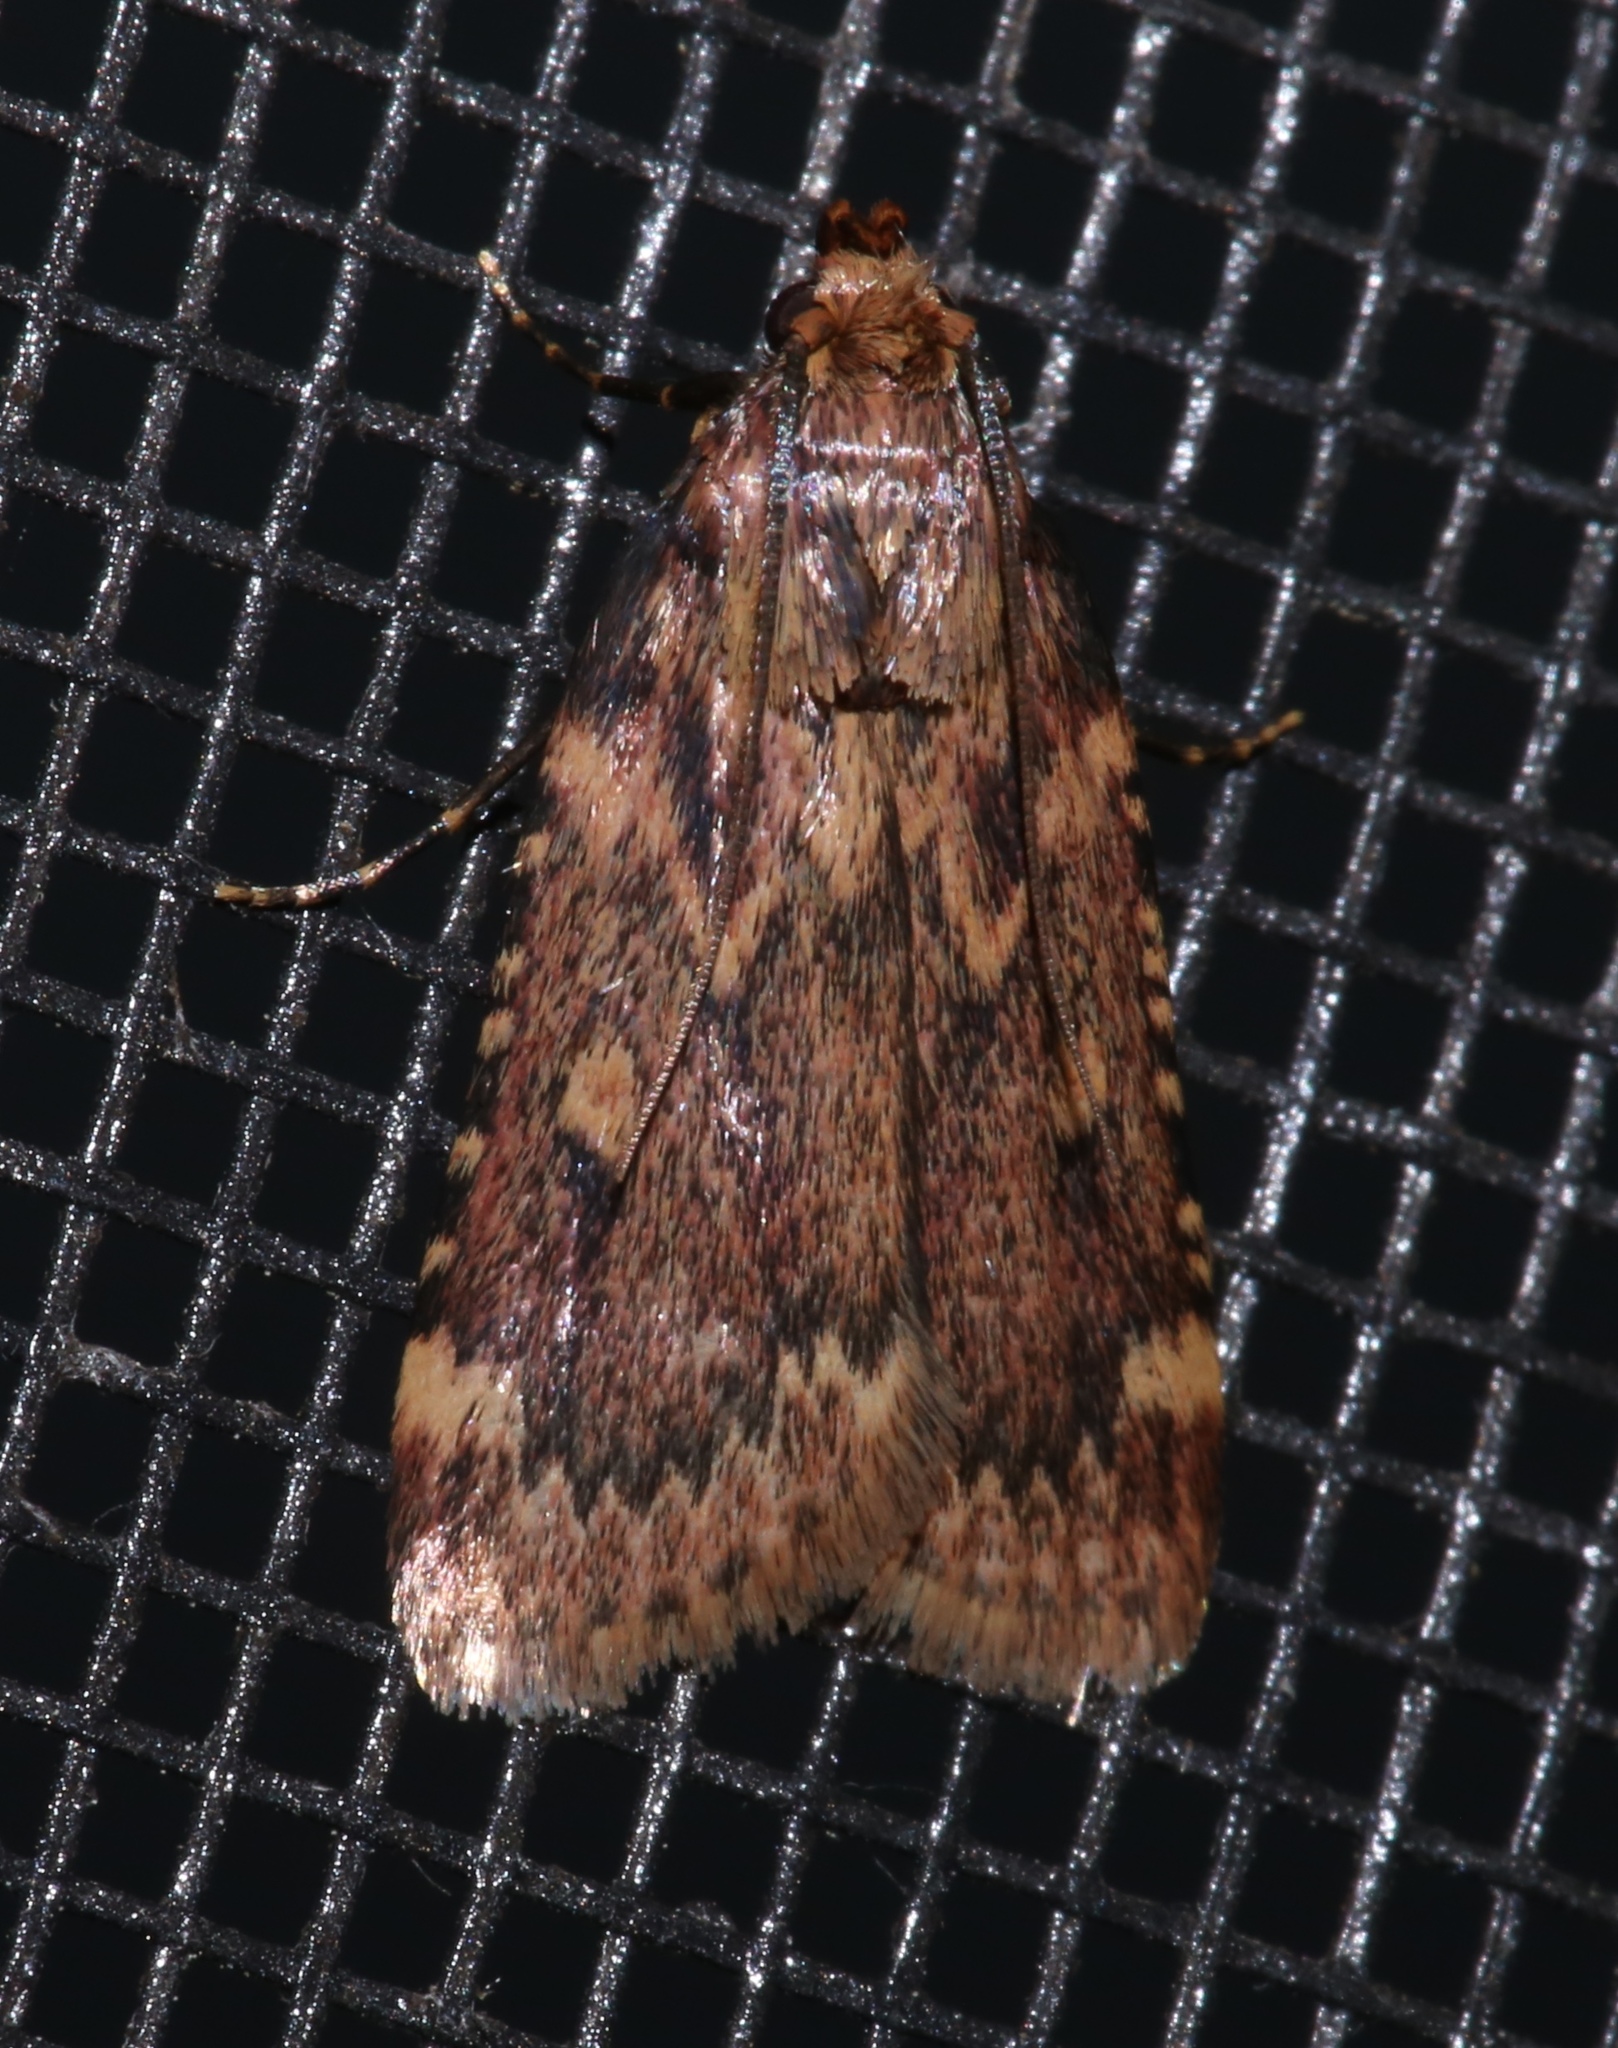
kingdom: Animalia
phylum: Arthropoda
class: Insecta
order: Lepidoptera
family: Pyralidae
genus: Aglossa
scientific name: Aglossa cuprina
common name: Grease moth
